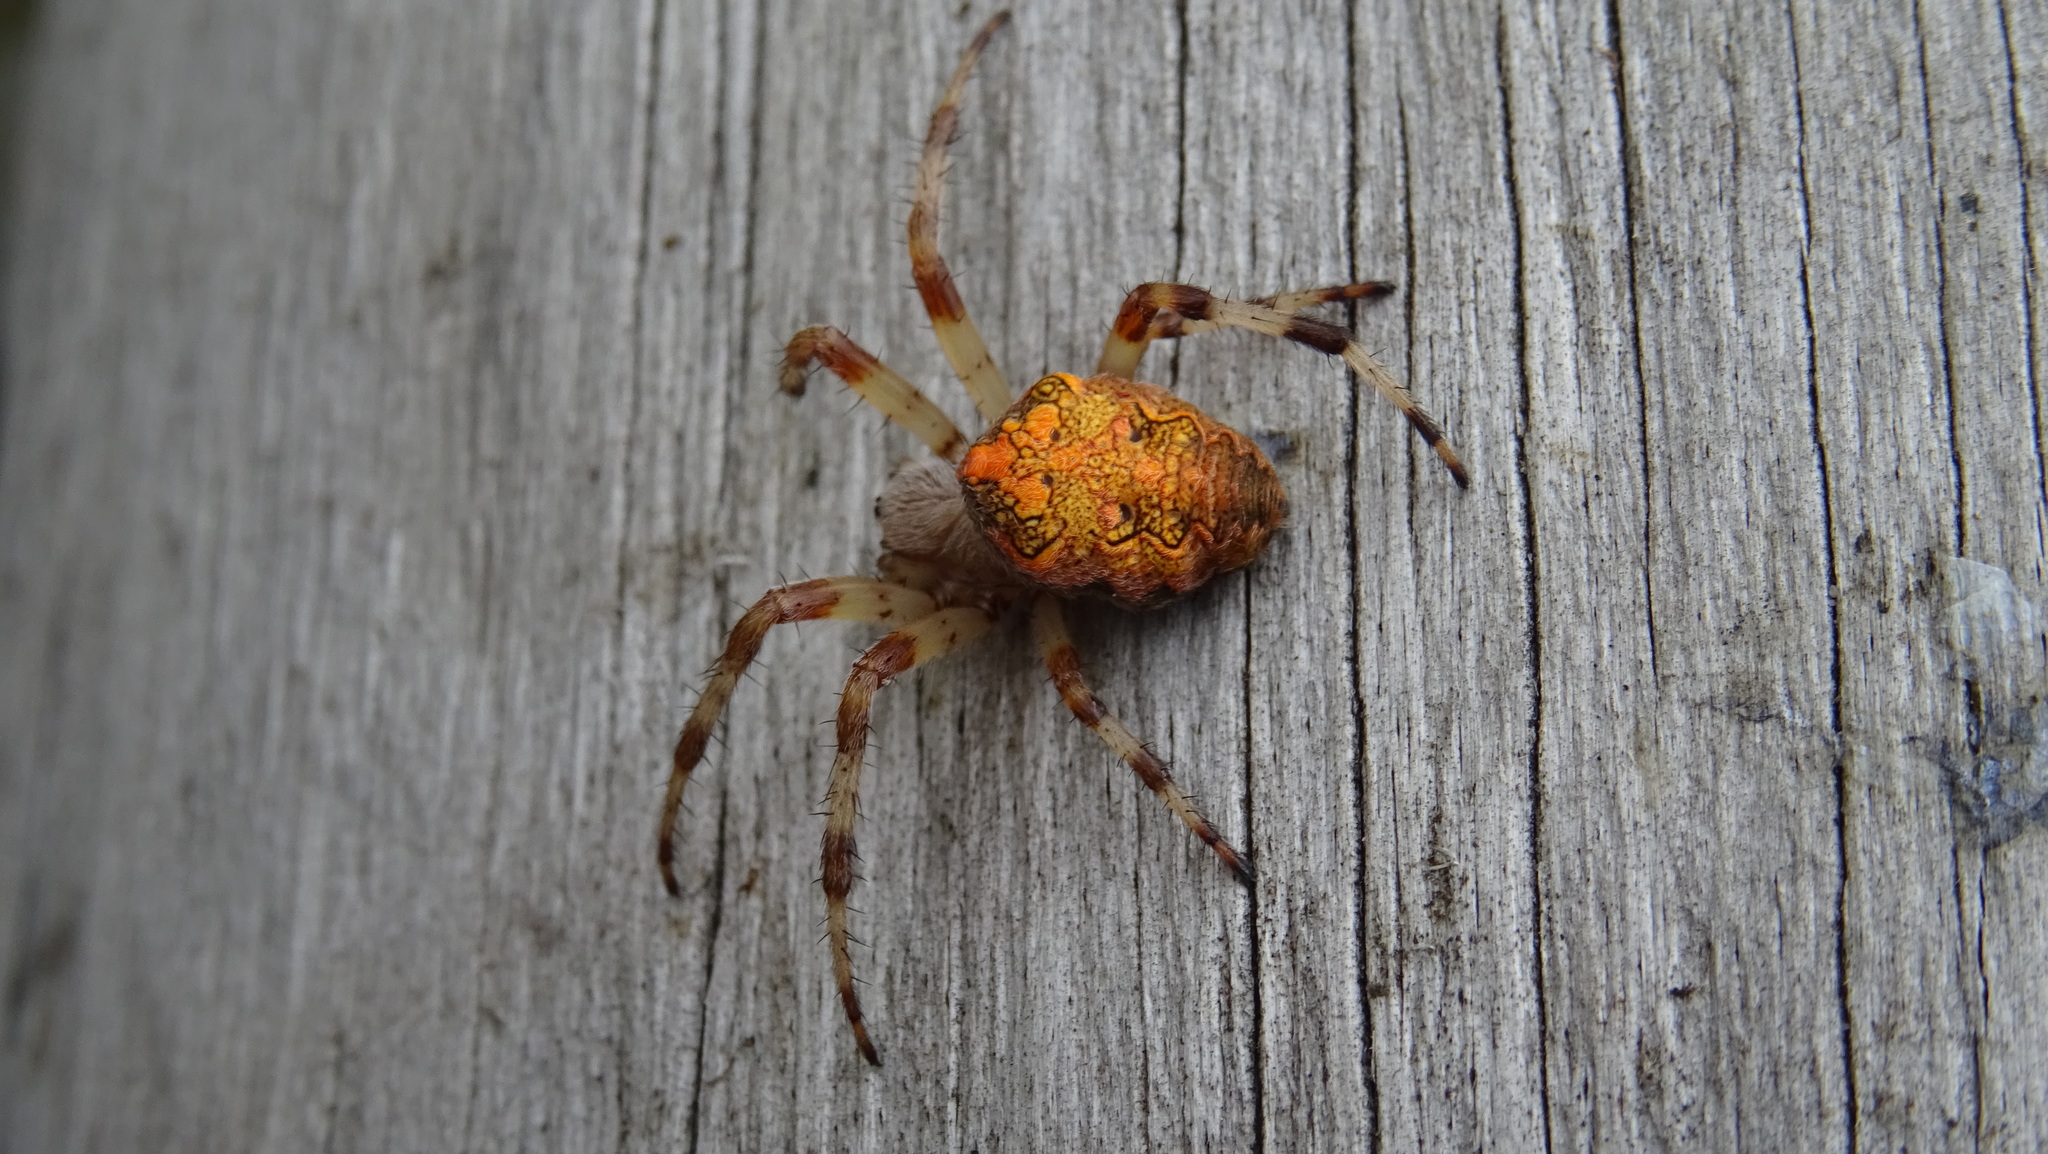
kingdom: Animalia
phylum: Arthropoda
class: Arachnida
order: Araneae
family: Araneidae
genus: Araneus
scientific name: Araneus marmoreus
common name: Marbled orbweaver
